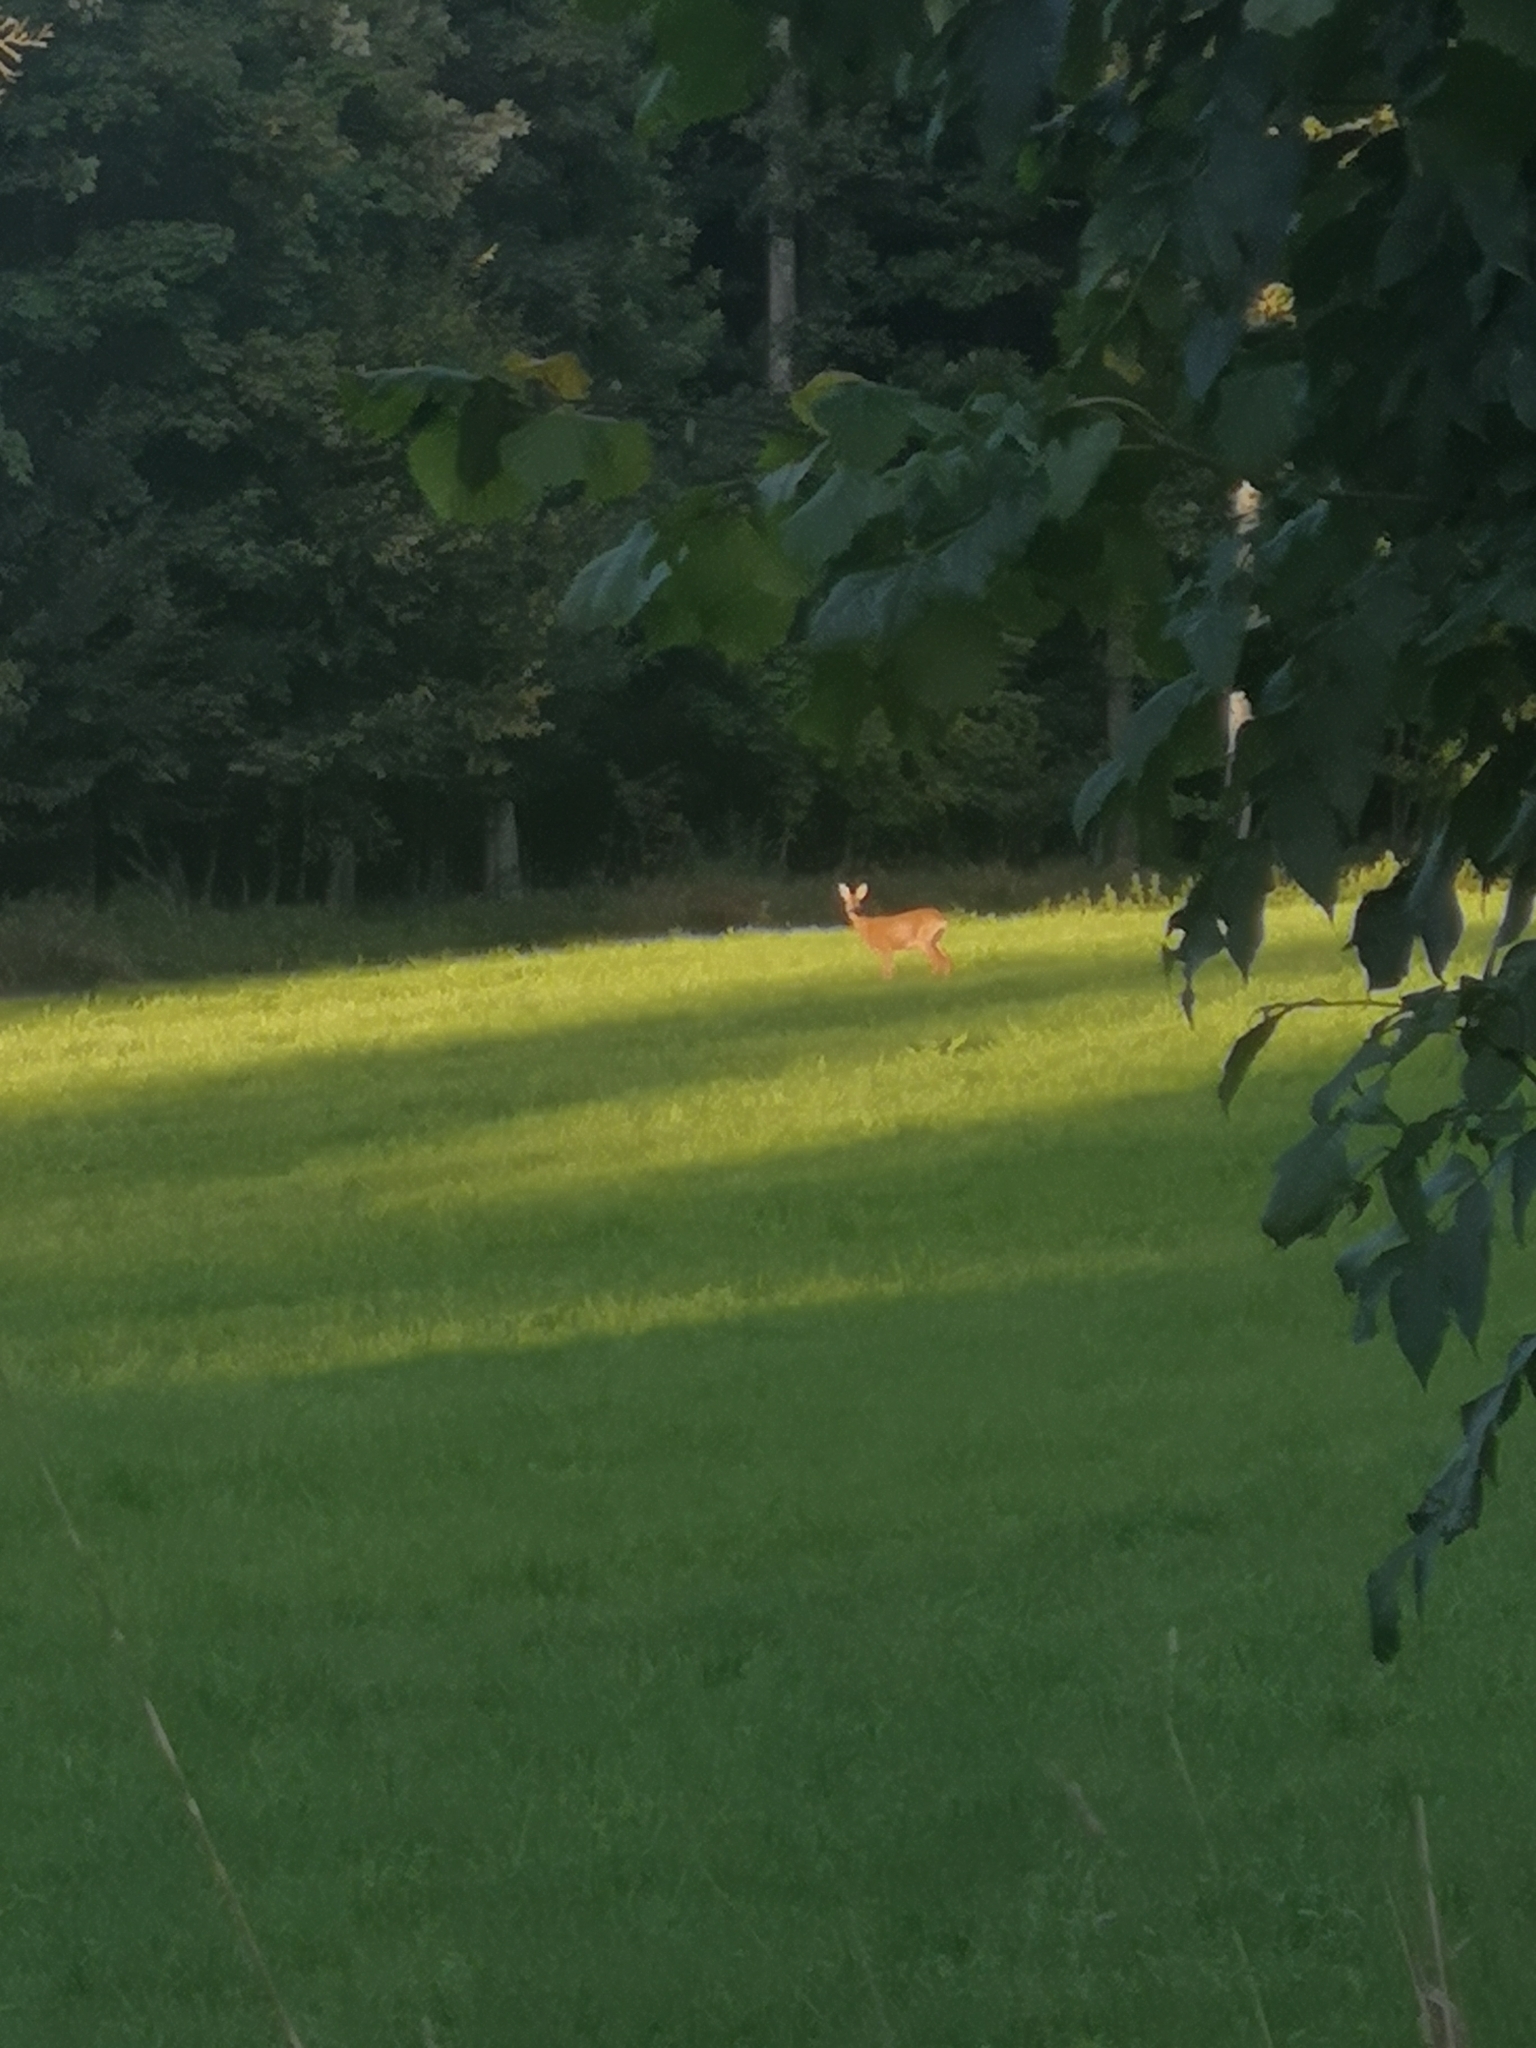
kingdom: Animalia
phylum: Chordata
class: Mammalia
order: Artiodactyla
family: Cervidae
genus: Capreolus
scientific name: Capreolus capreolus
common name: Western roe deer
